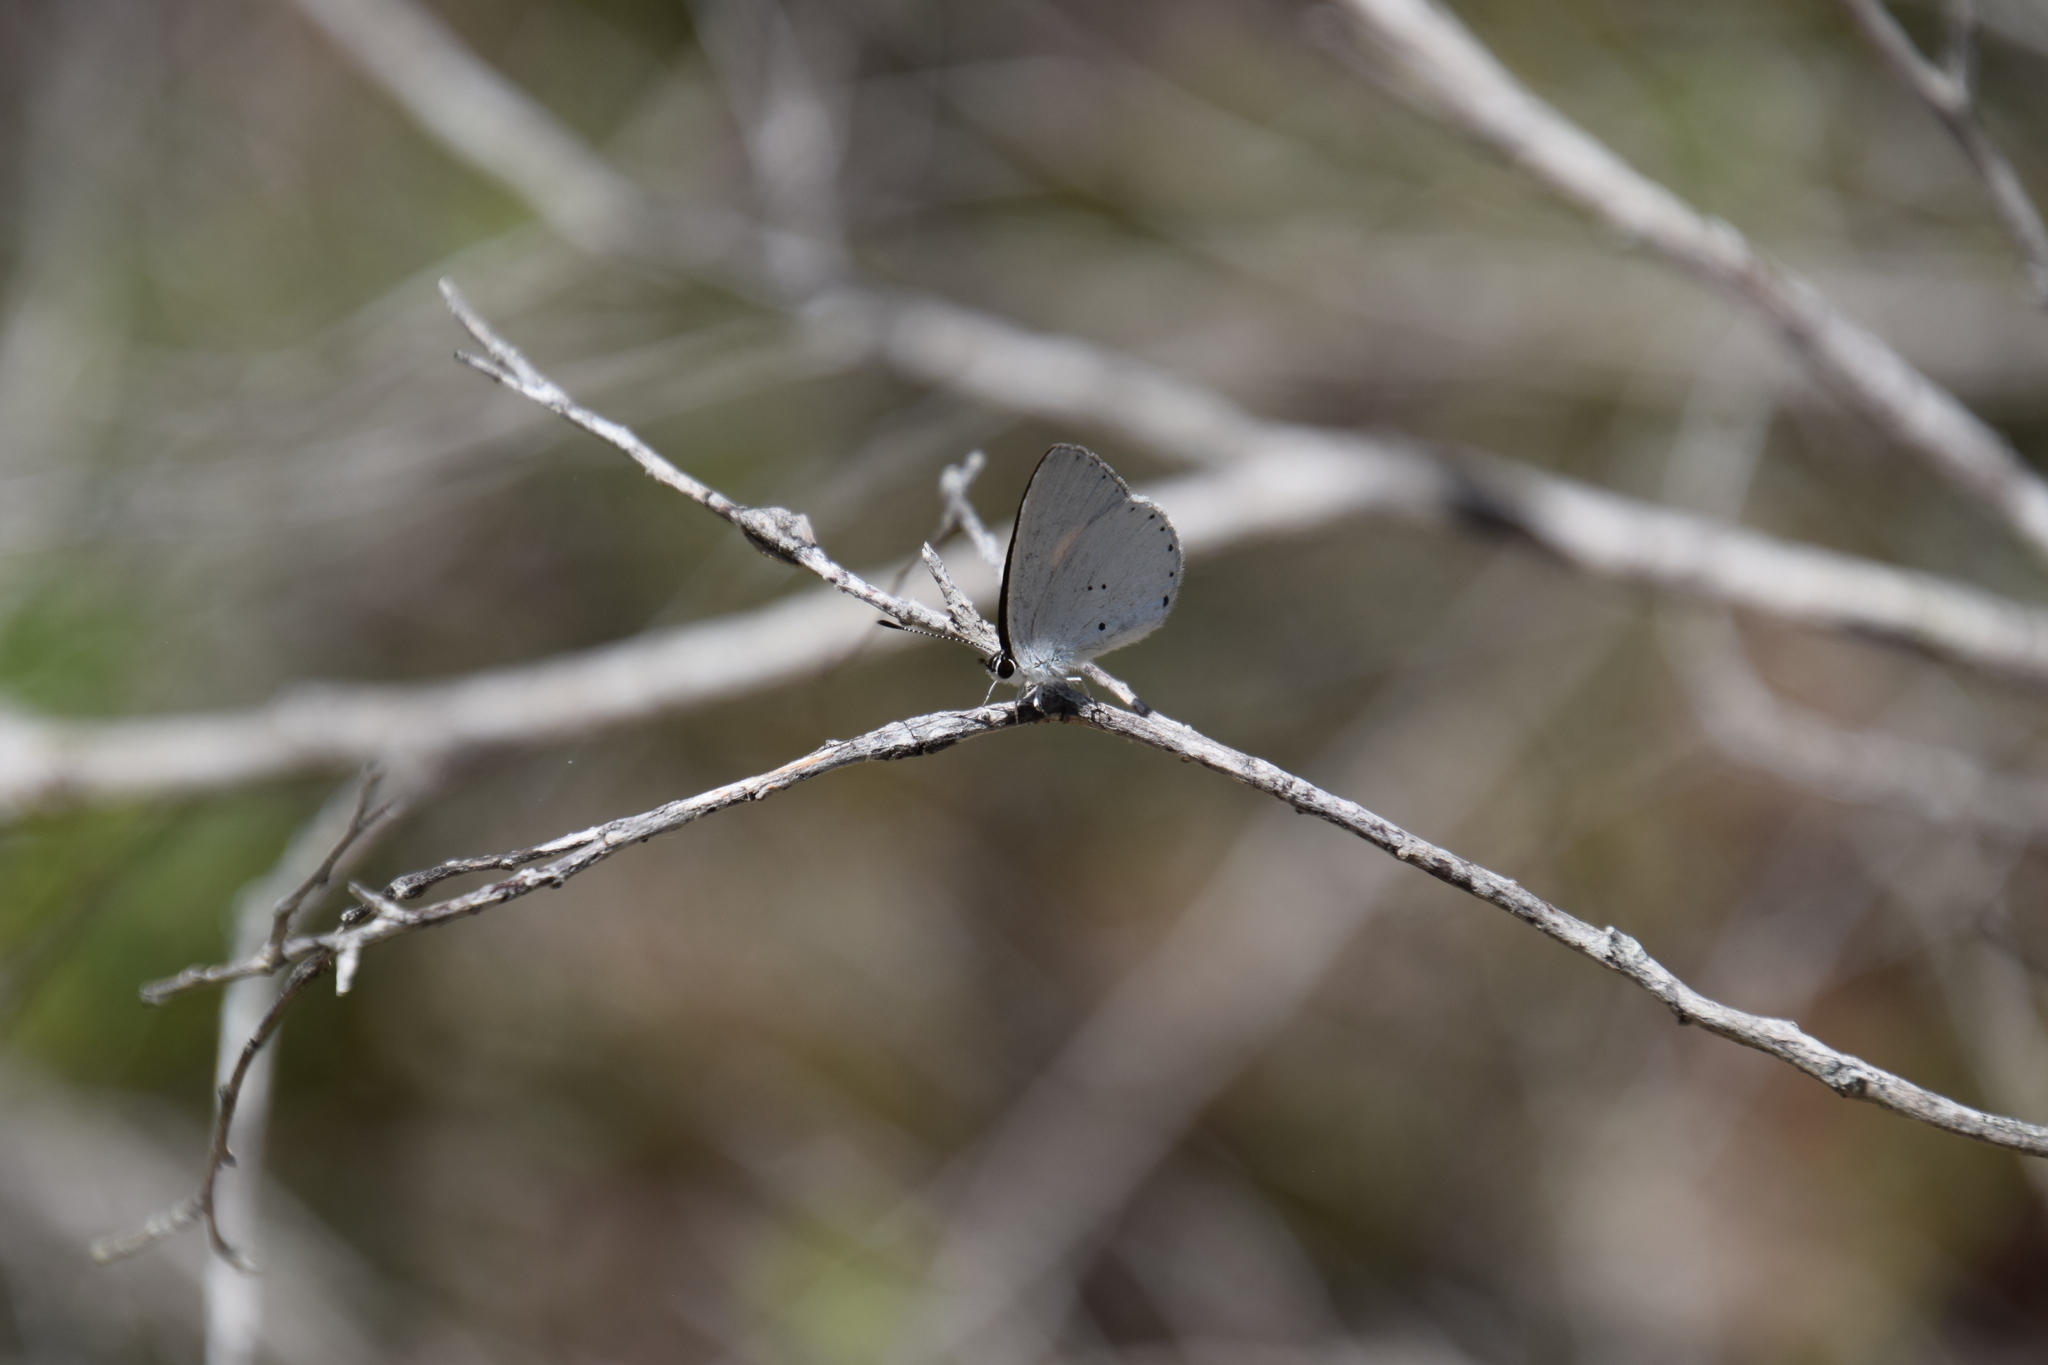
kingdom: Animalia
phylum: Arthropoda
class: Insecta
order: Lepidoptera
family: Lycaenidae
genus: Candalides
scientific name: Candalides xanthospilos
